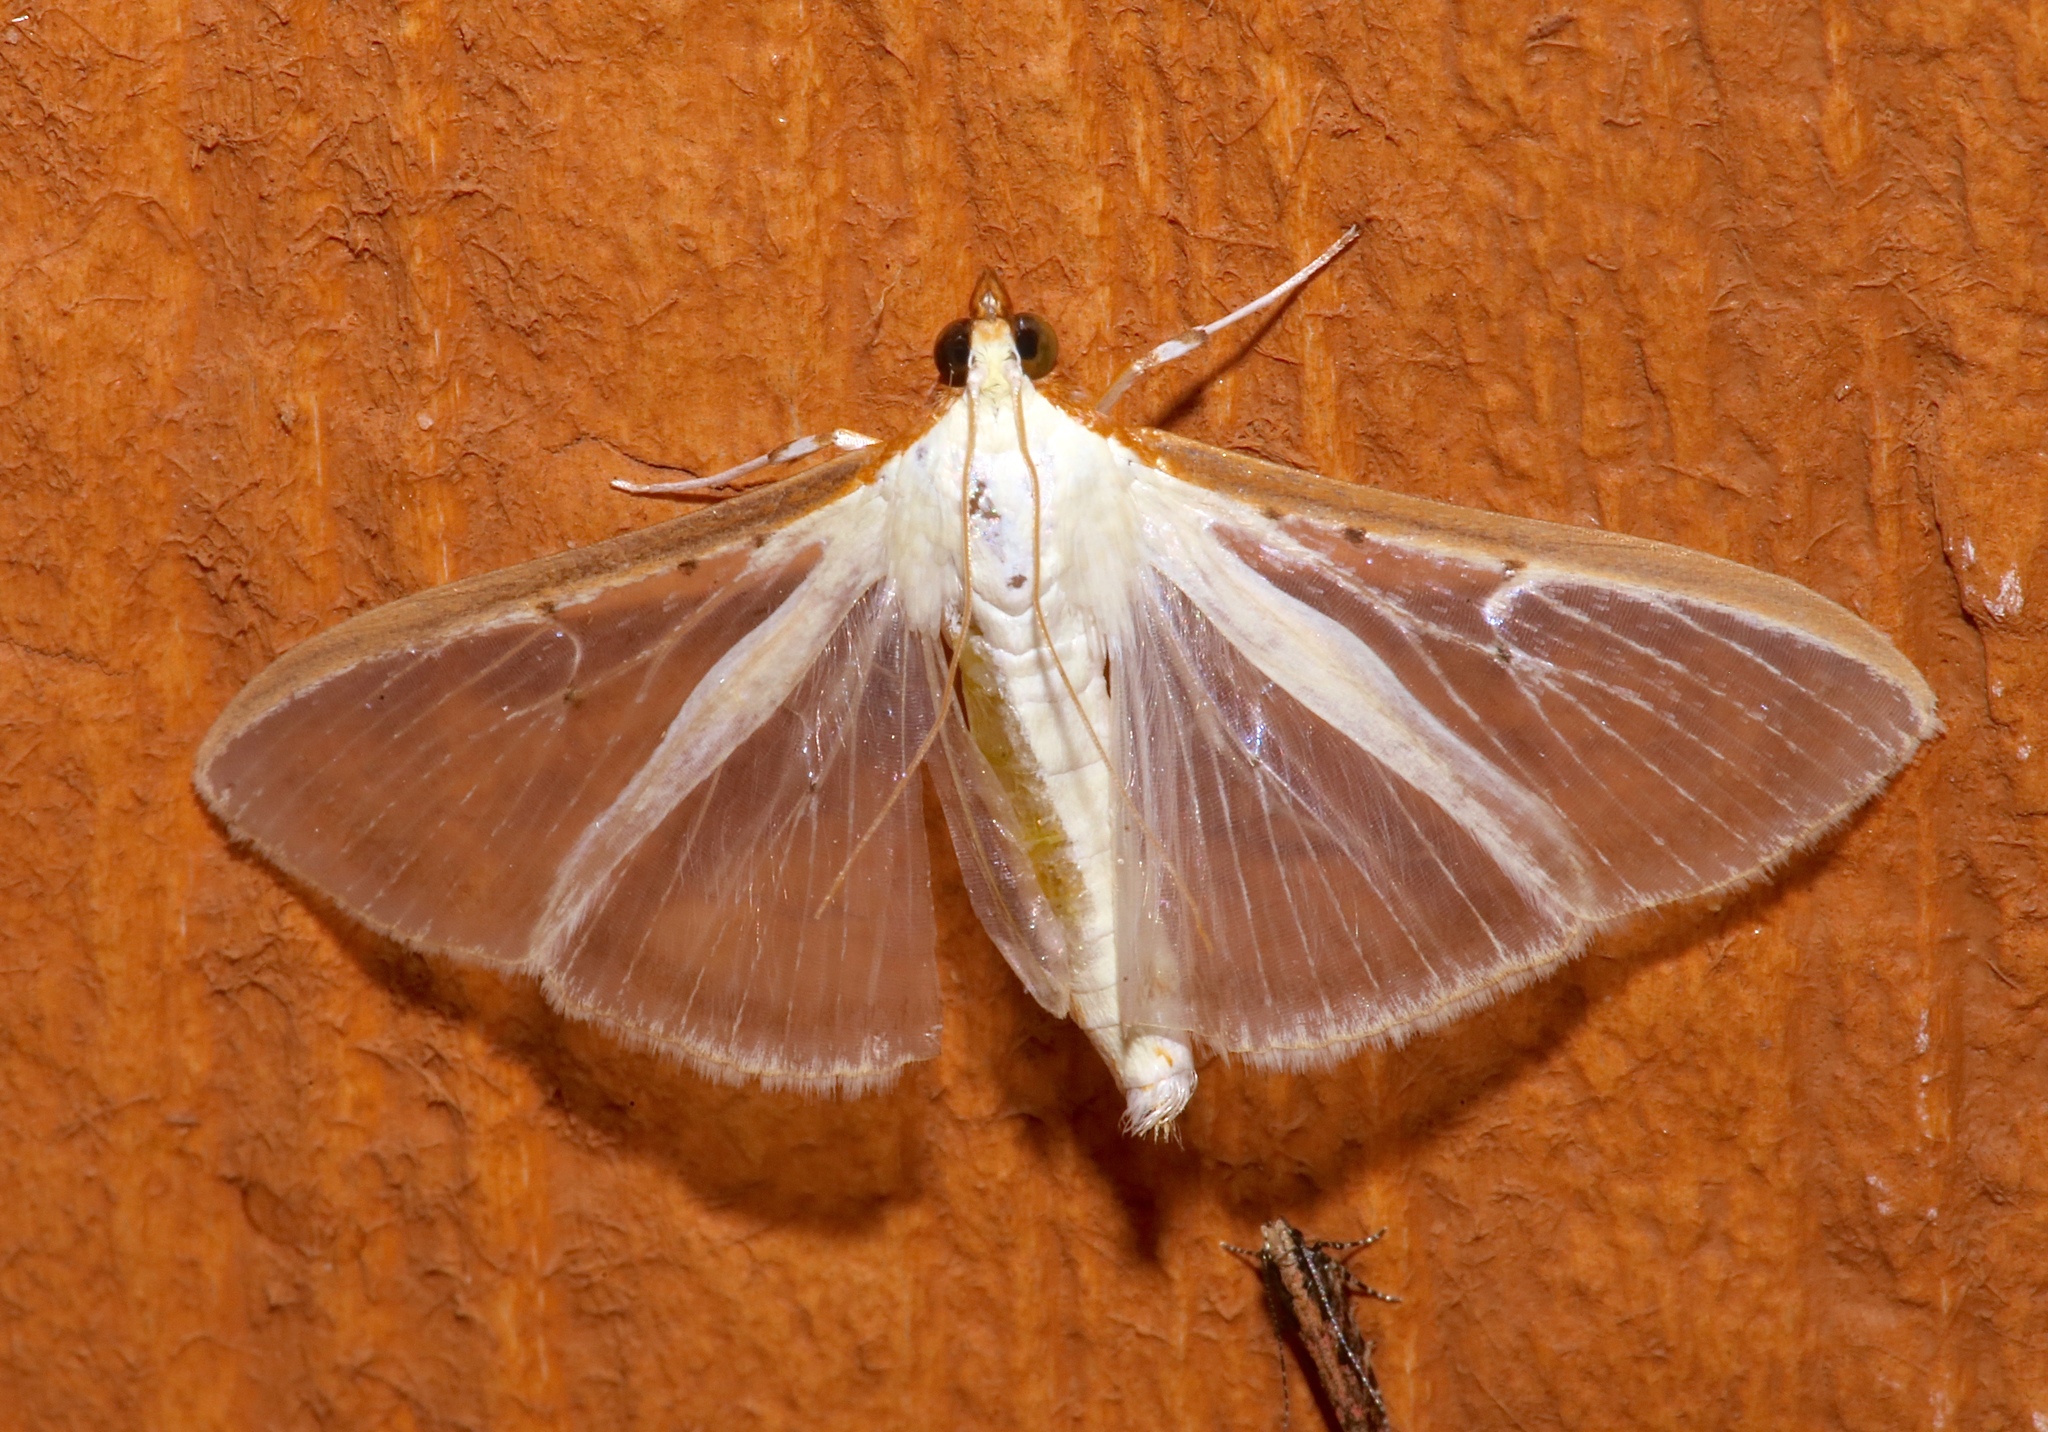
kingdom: Animalia
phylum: Arthropoda
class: Insecta
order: Lepidoptera
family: Crambidae
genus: Palpita
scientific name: Palpita quadristigmalis
